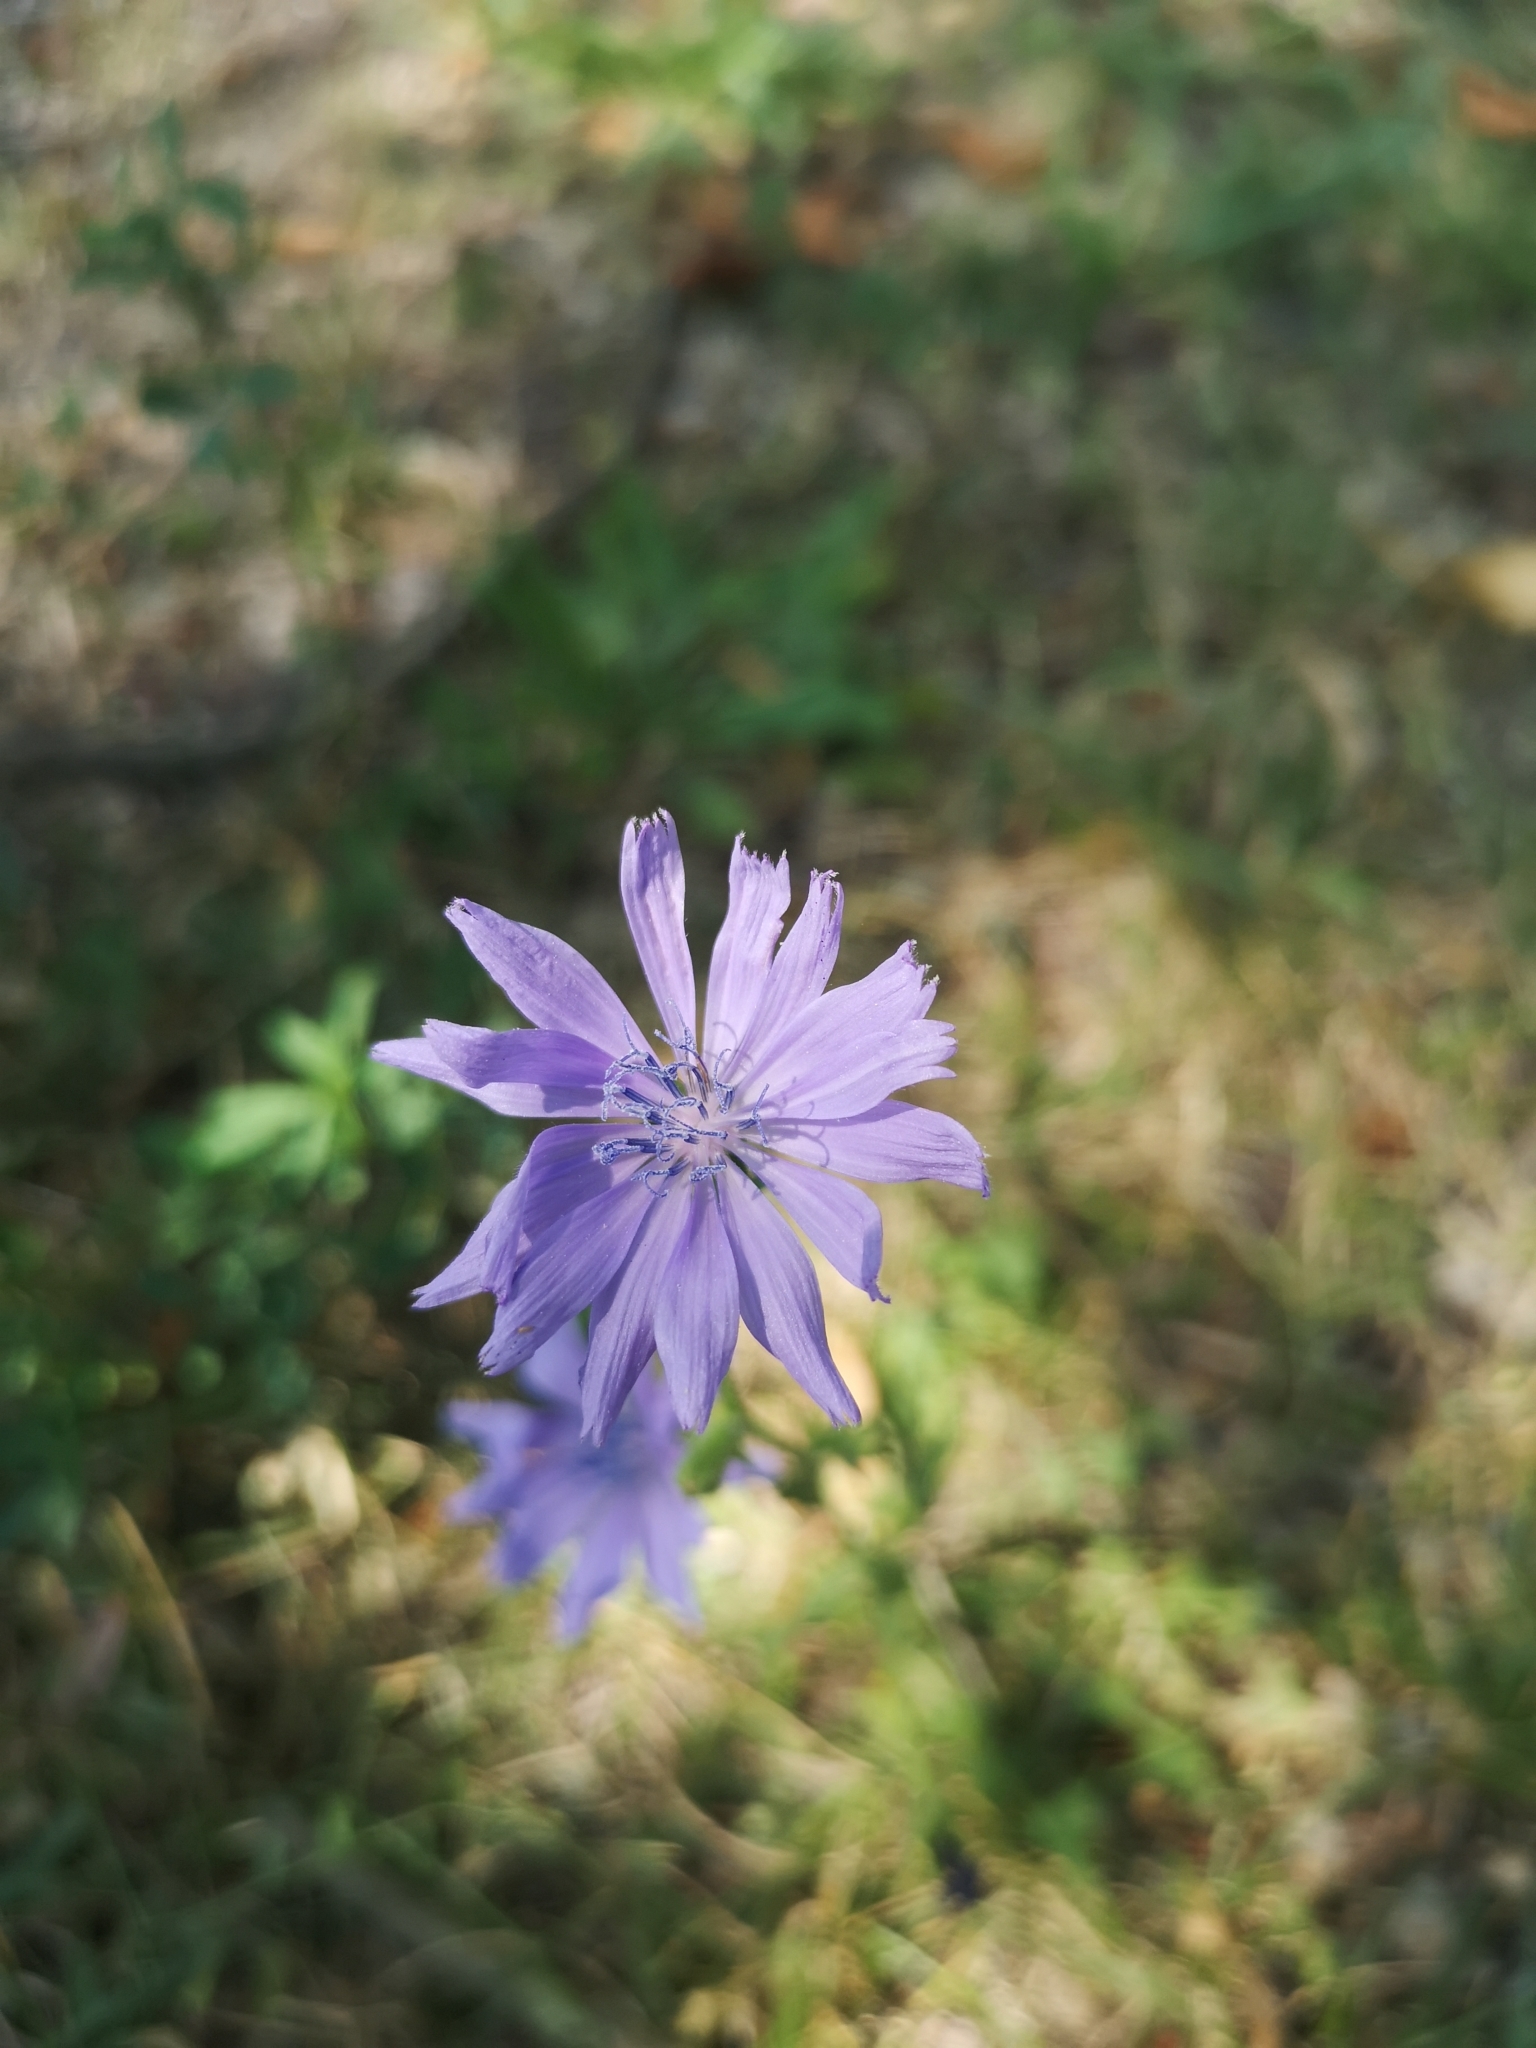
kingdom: Plantae
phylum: Tracheophyta
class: Magnoliopsida
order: Asterales
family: Asteraceae
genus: Cichorium
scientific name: Cichorium intybus
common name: Chicory
